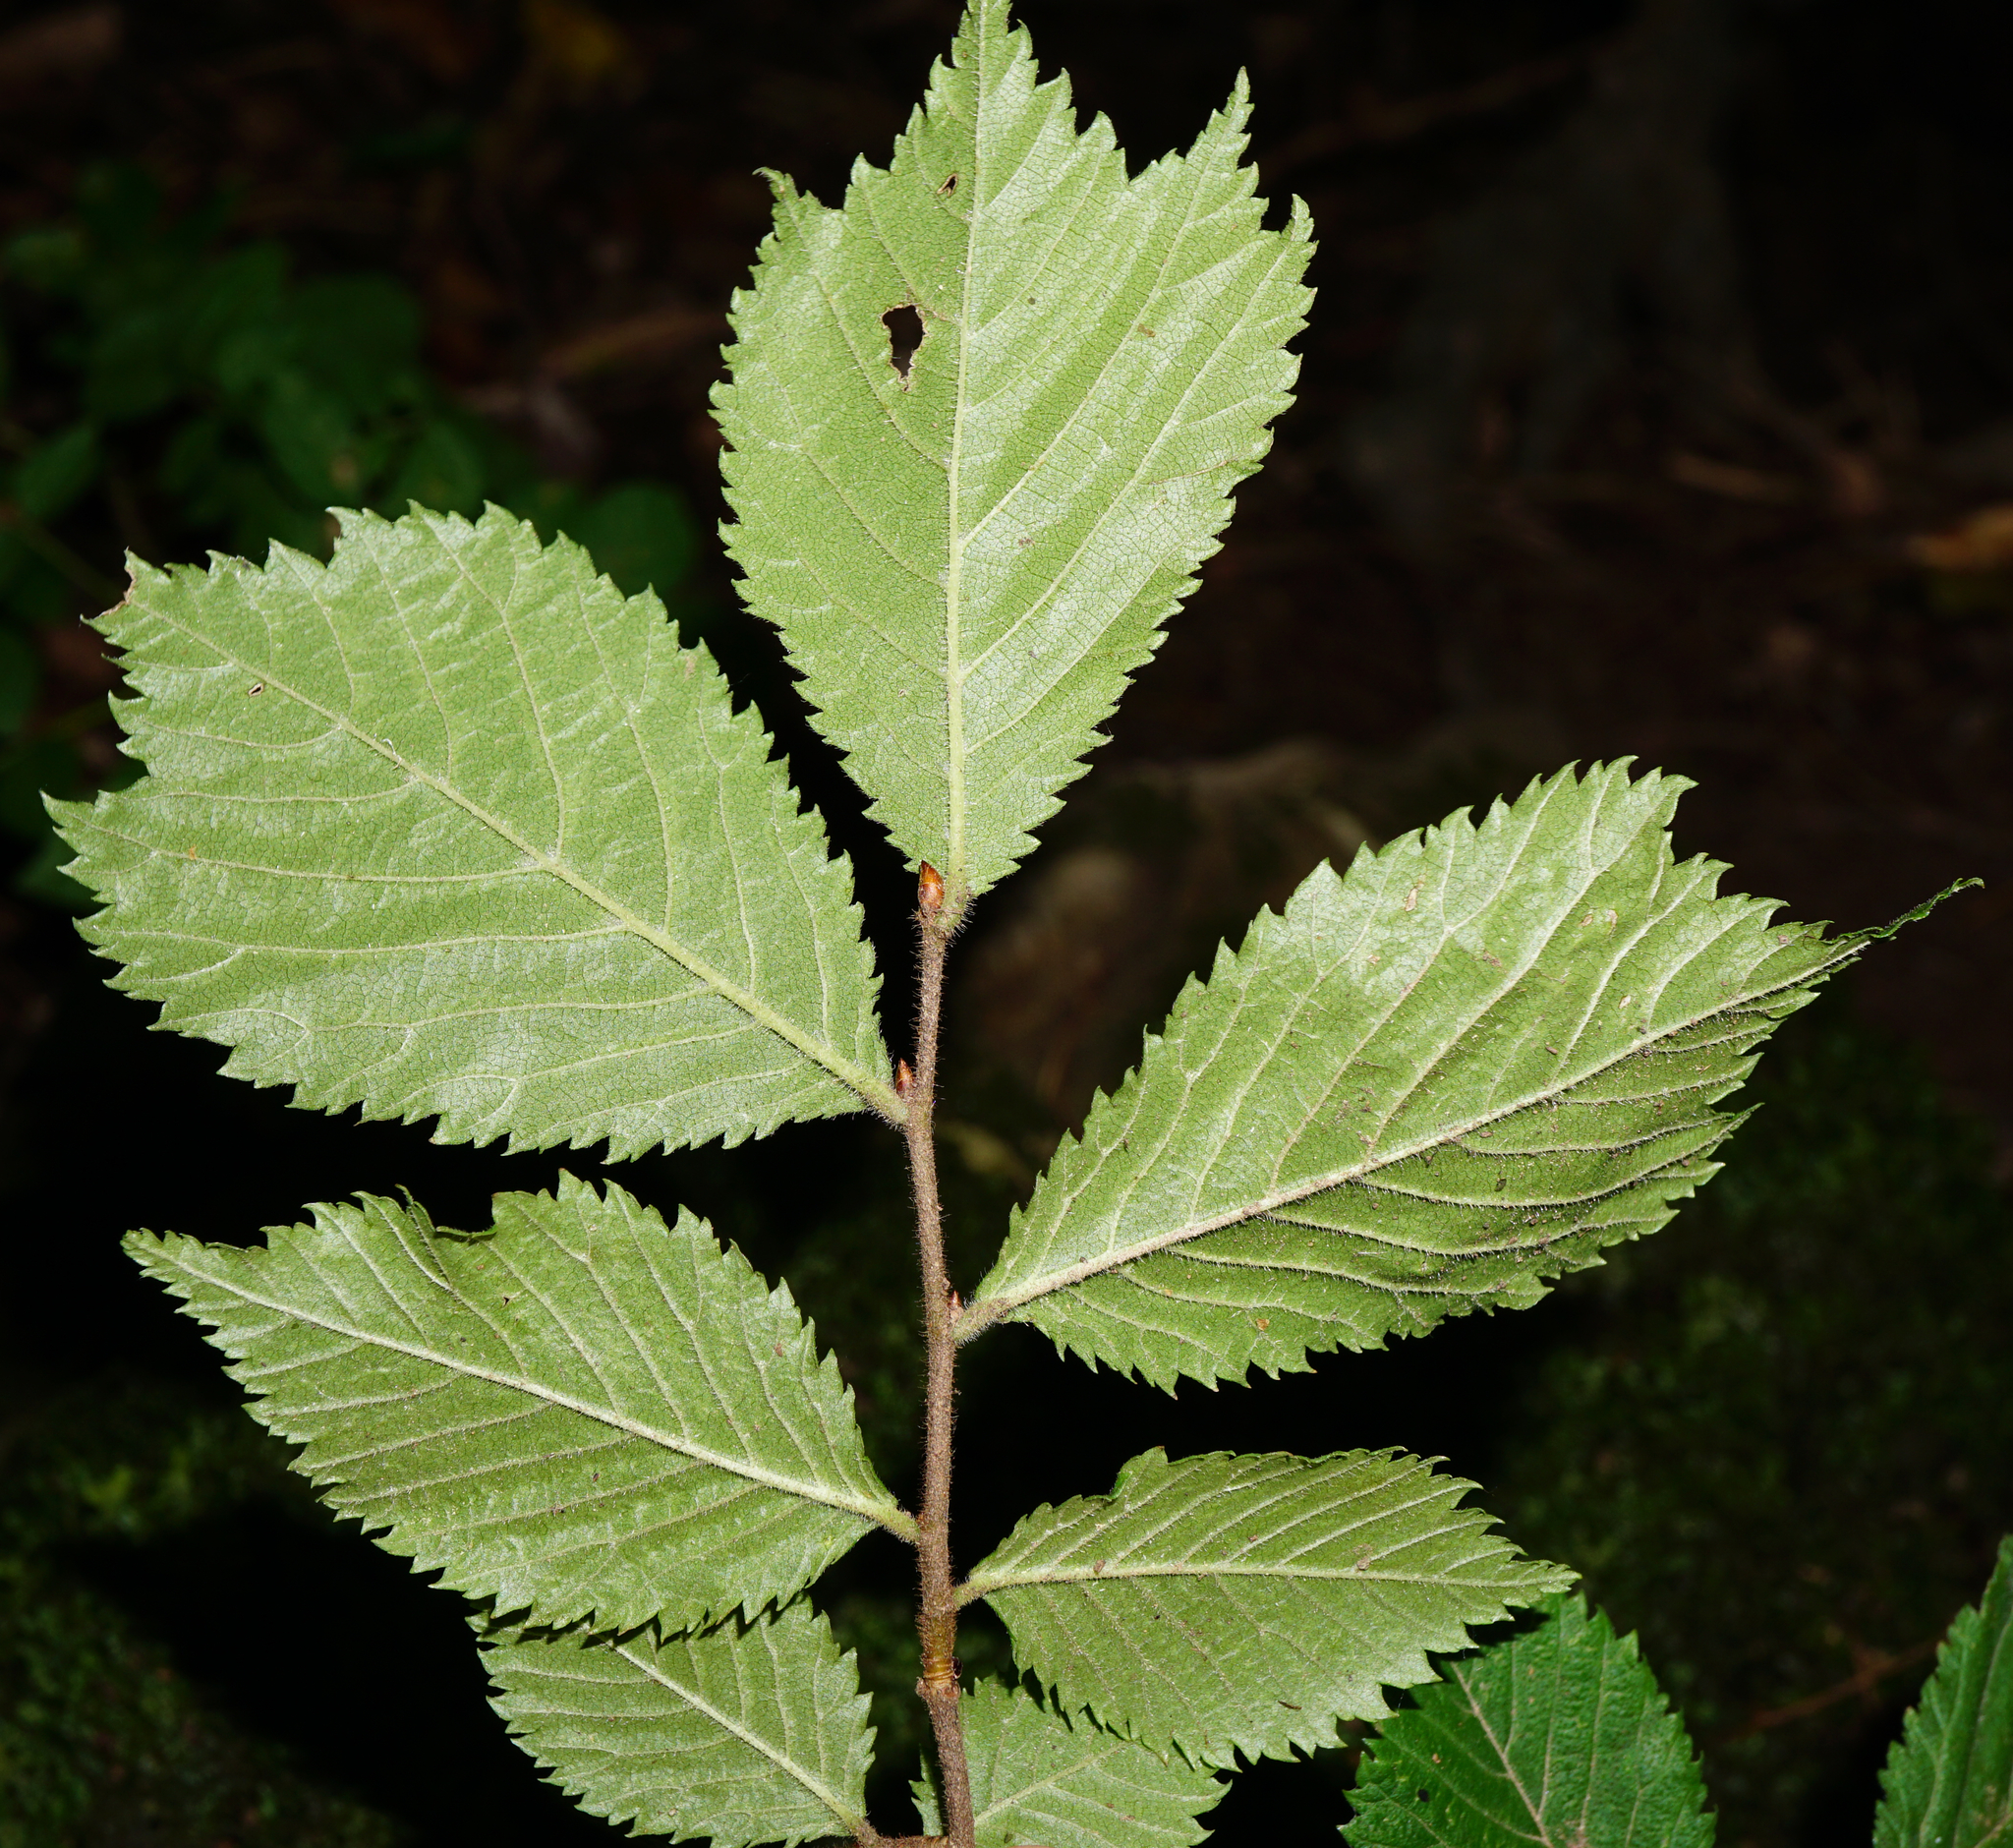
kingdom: Plantae
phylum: Tracheophyta
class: Magnoliopsida
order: Rosales
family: Ulmaceae
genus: Ulmus
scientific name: Ulmus glabra
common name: Wych elm
